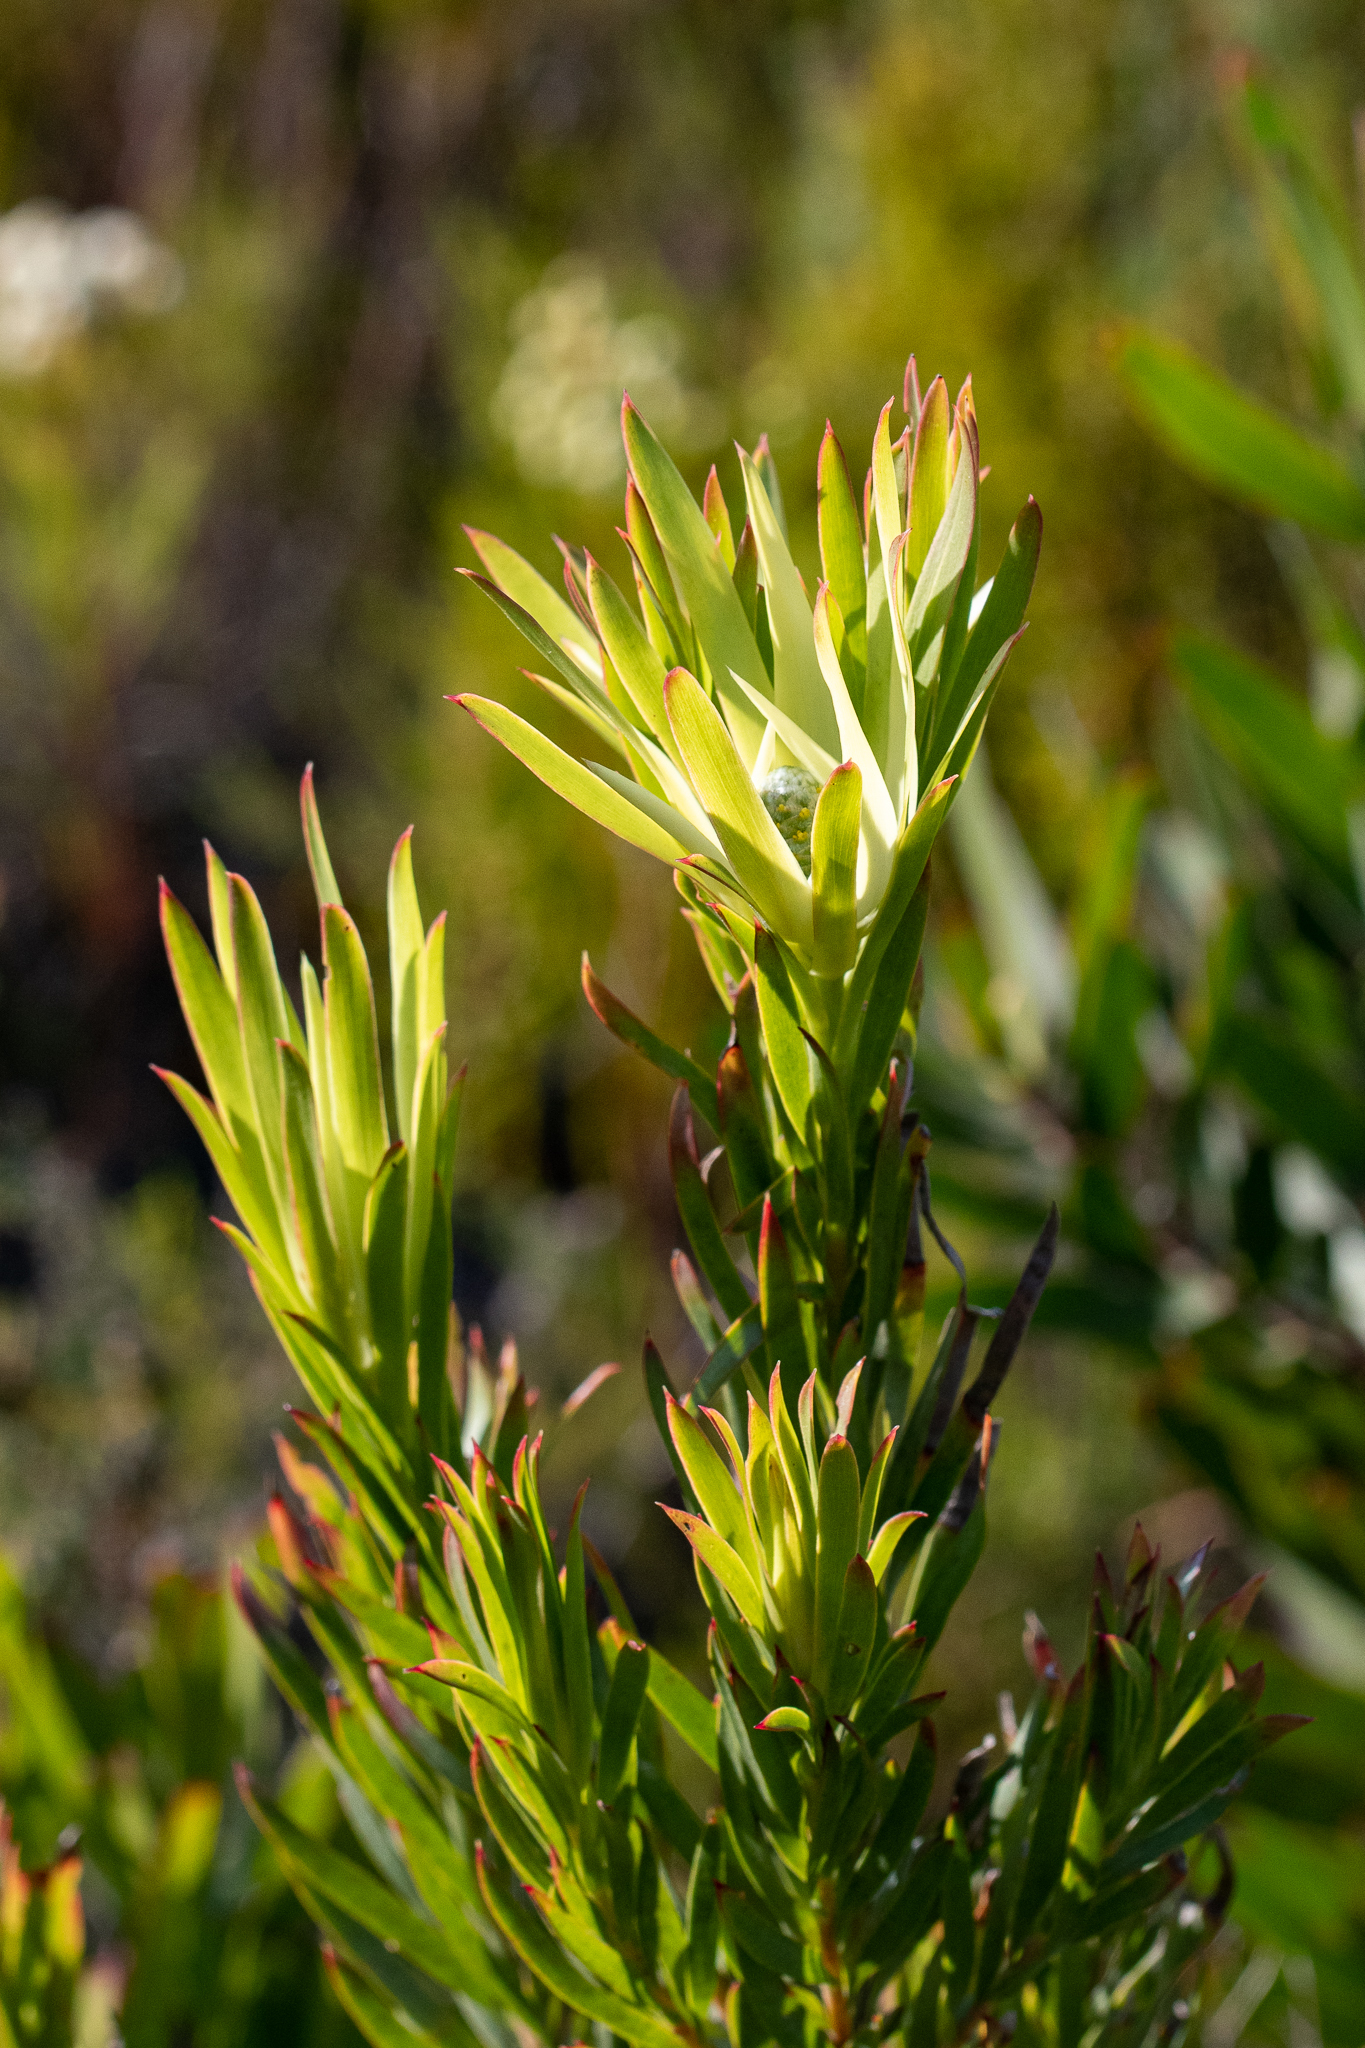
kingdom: Plantae
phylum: Tracheophyta
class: Magnoliopsida
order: Proteales
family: Proteaceae
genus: Leucadendron
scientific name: Leucadendron xanthoconus
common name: Sickle-leaf conebush
